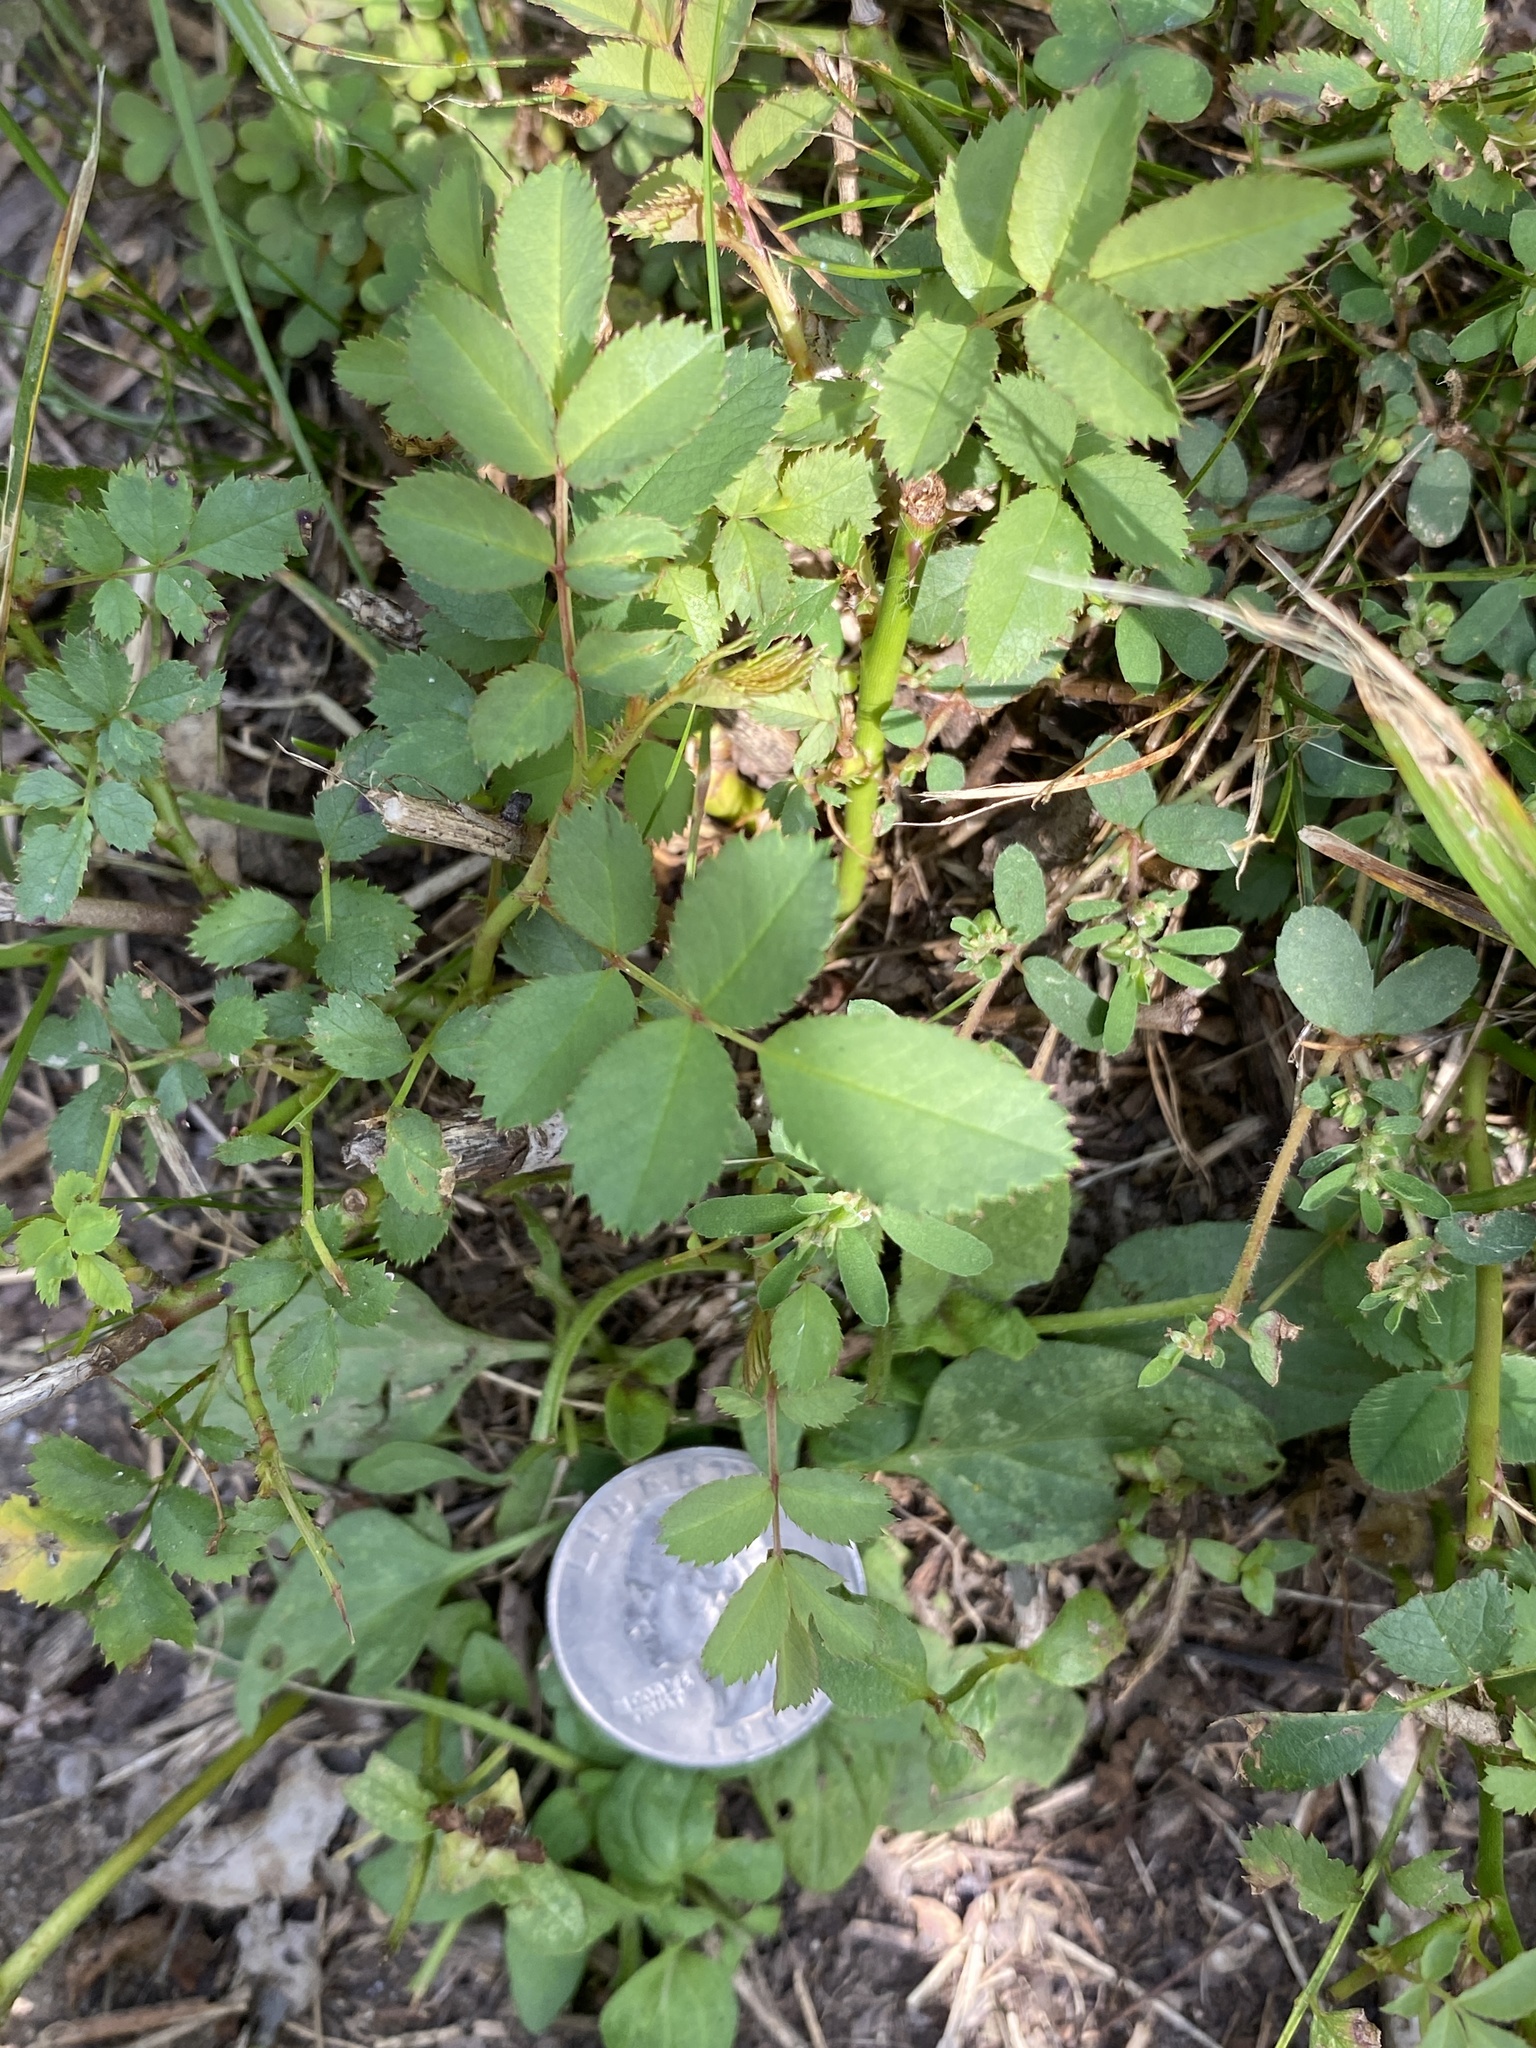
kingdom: Plantae
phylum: Tracheophyta
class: Magnoliopsida
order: Rosales
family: Rosaceae
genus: Rosa
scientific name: Rosa multiflora
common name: Multiflora rose
